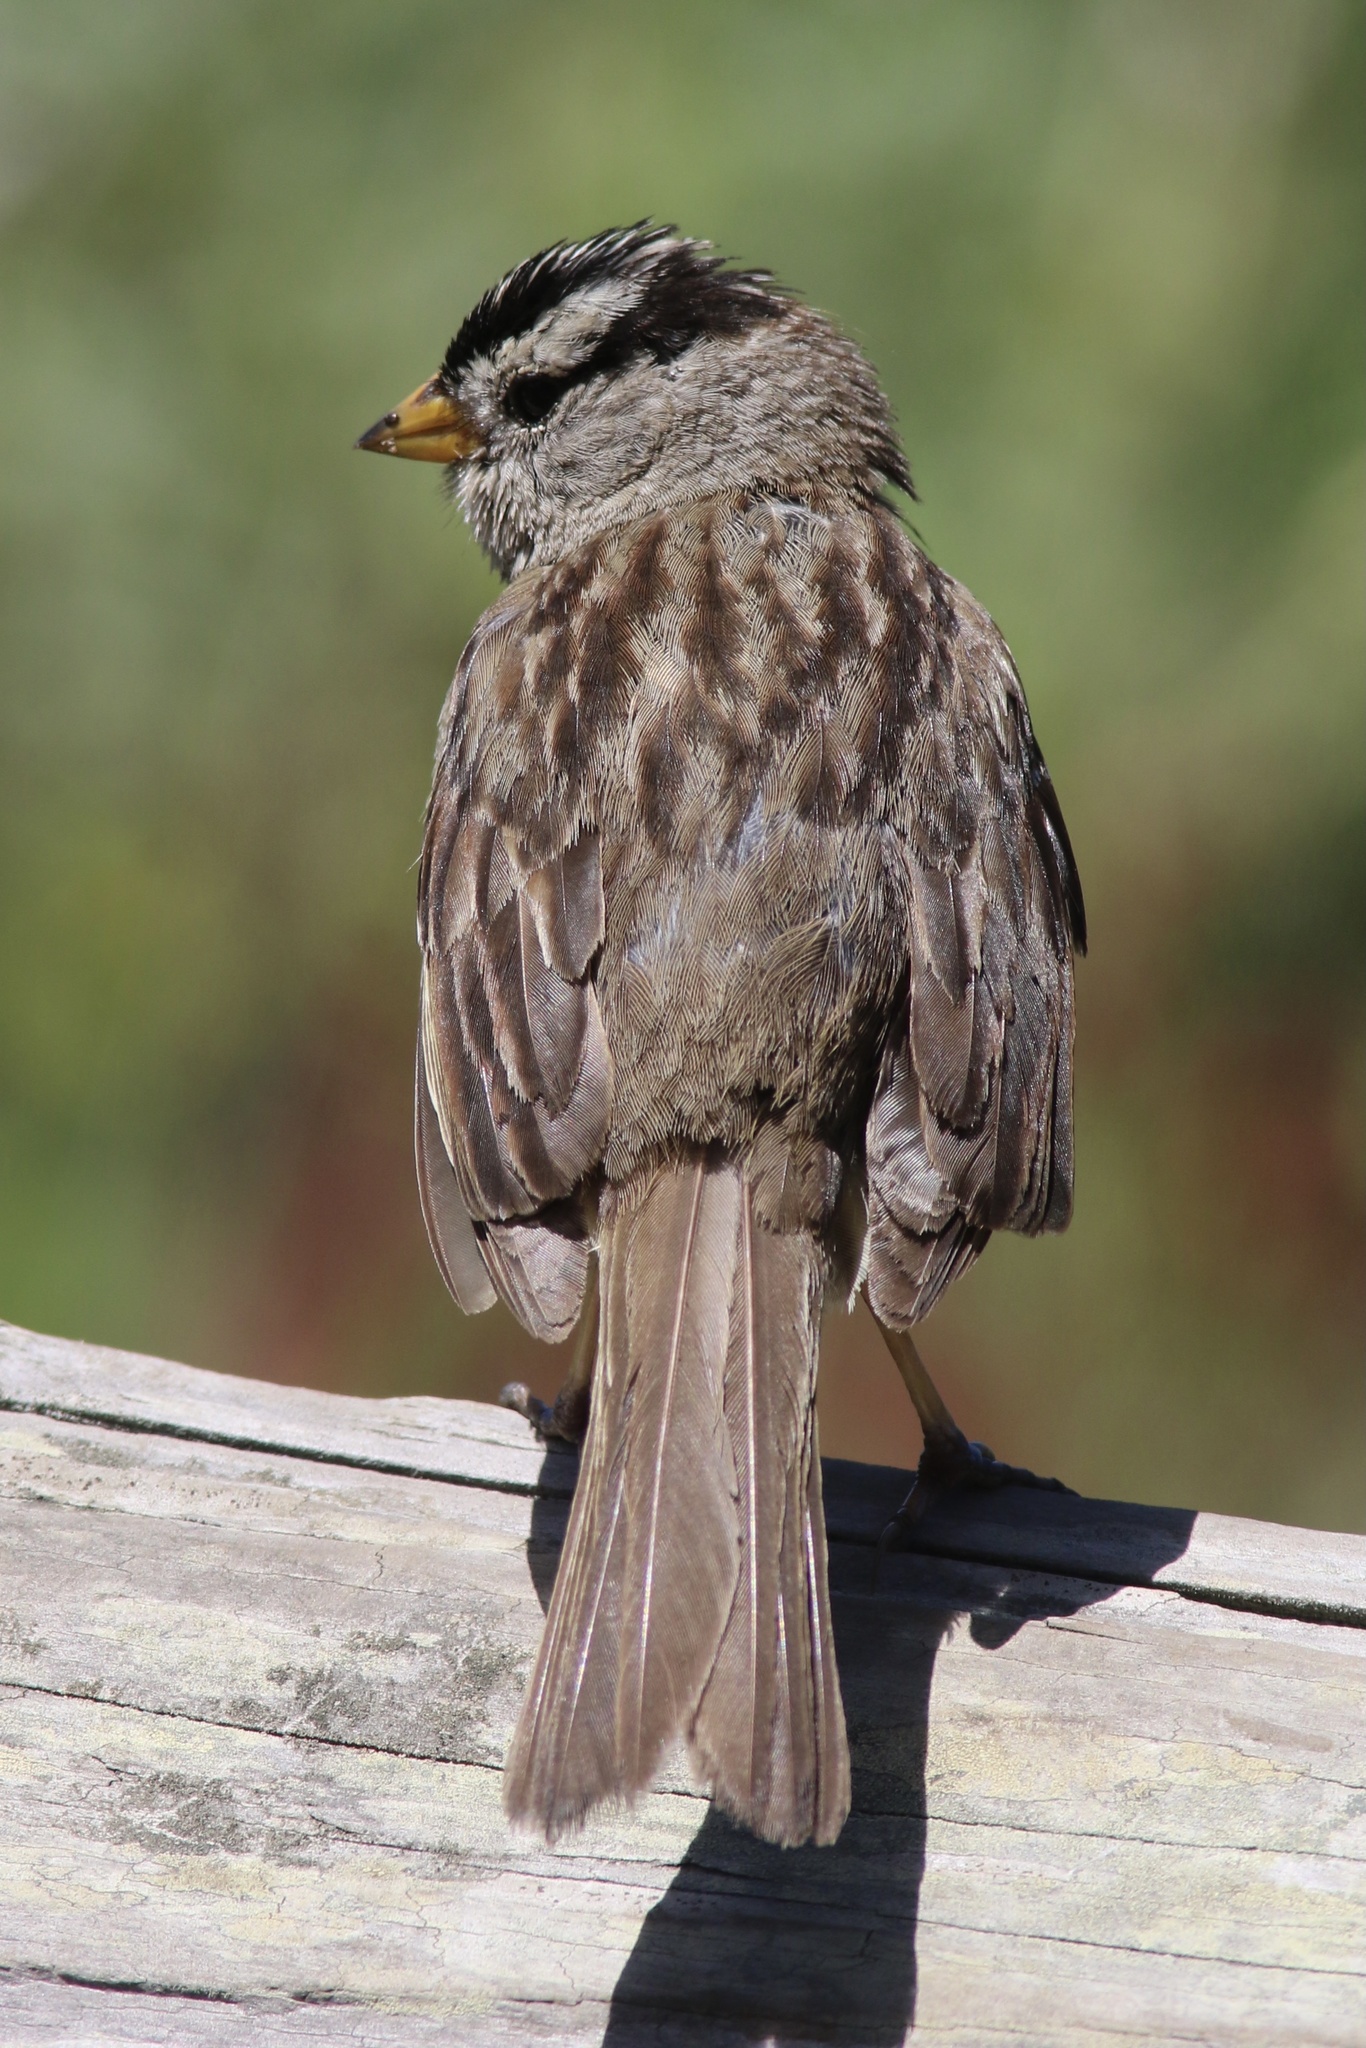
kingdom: Animalia
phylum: Chordata
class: Aves
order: Passeriformes
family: Passerellidae
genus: Zonotrichia
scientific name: Zonotrichia leucophrys
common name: White-crowned sparrow
